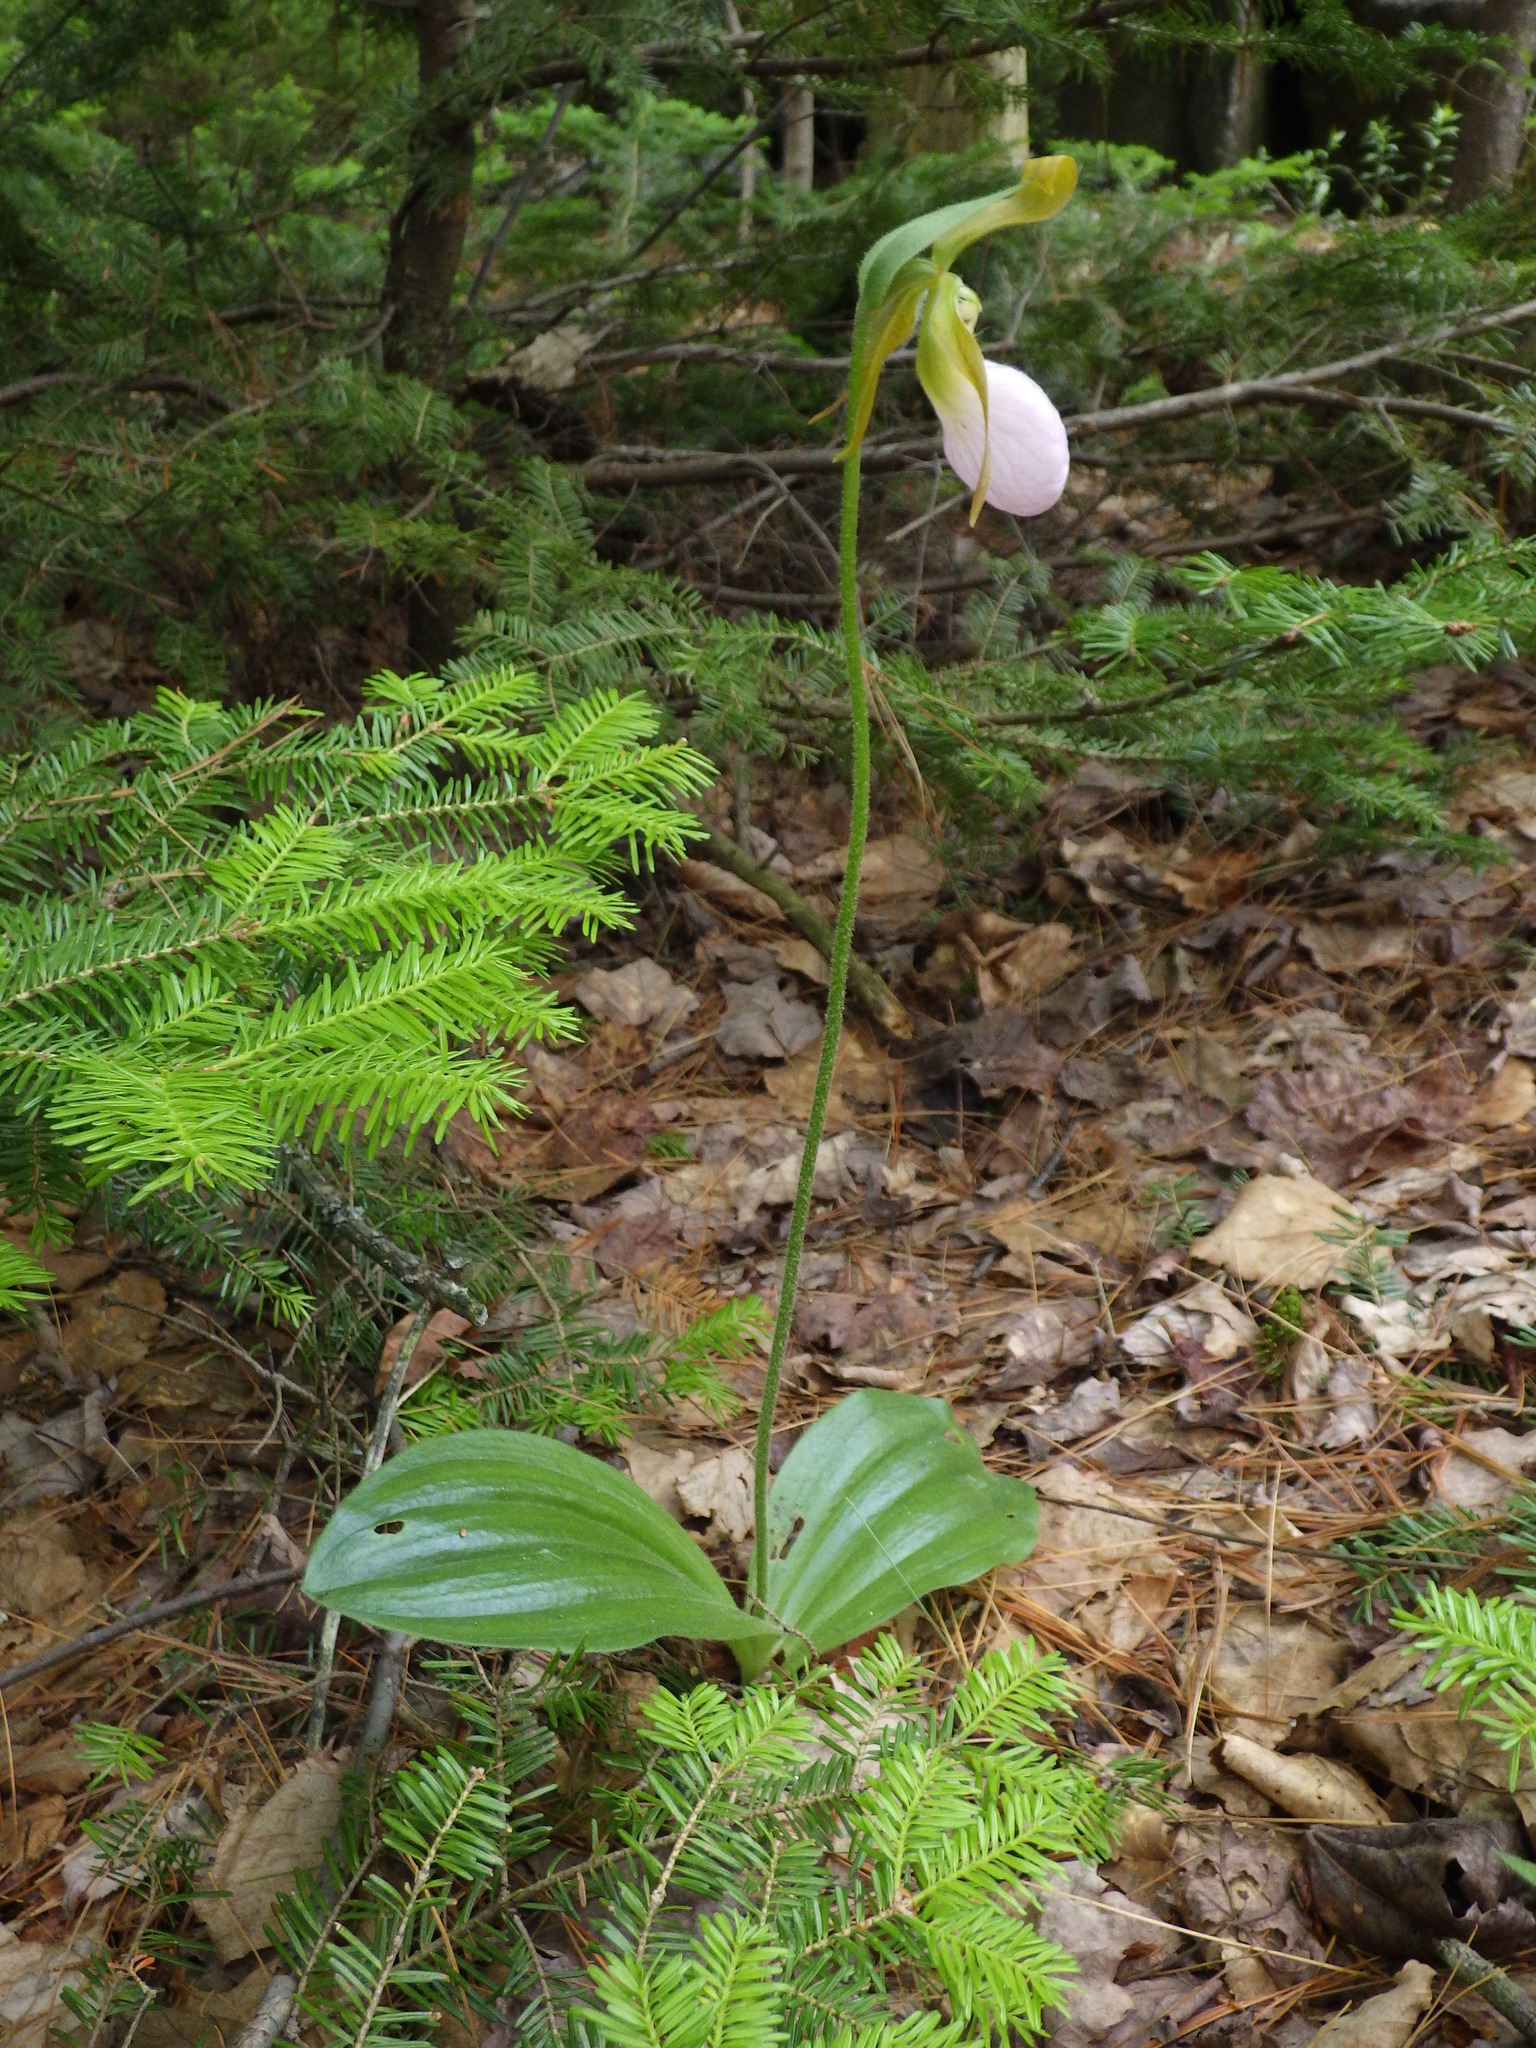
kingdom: Plantae
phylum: Tracheophyta
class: Liliopsida
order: Asparagales
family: Orchidaceae
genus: Cypripedium
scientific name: Cypripedium acaule
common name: Pink lady's-slipper
